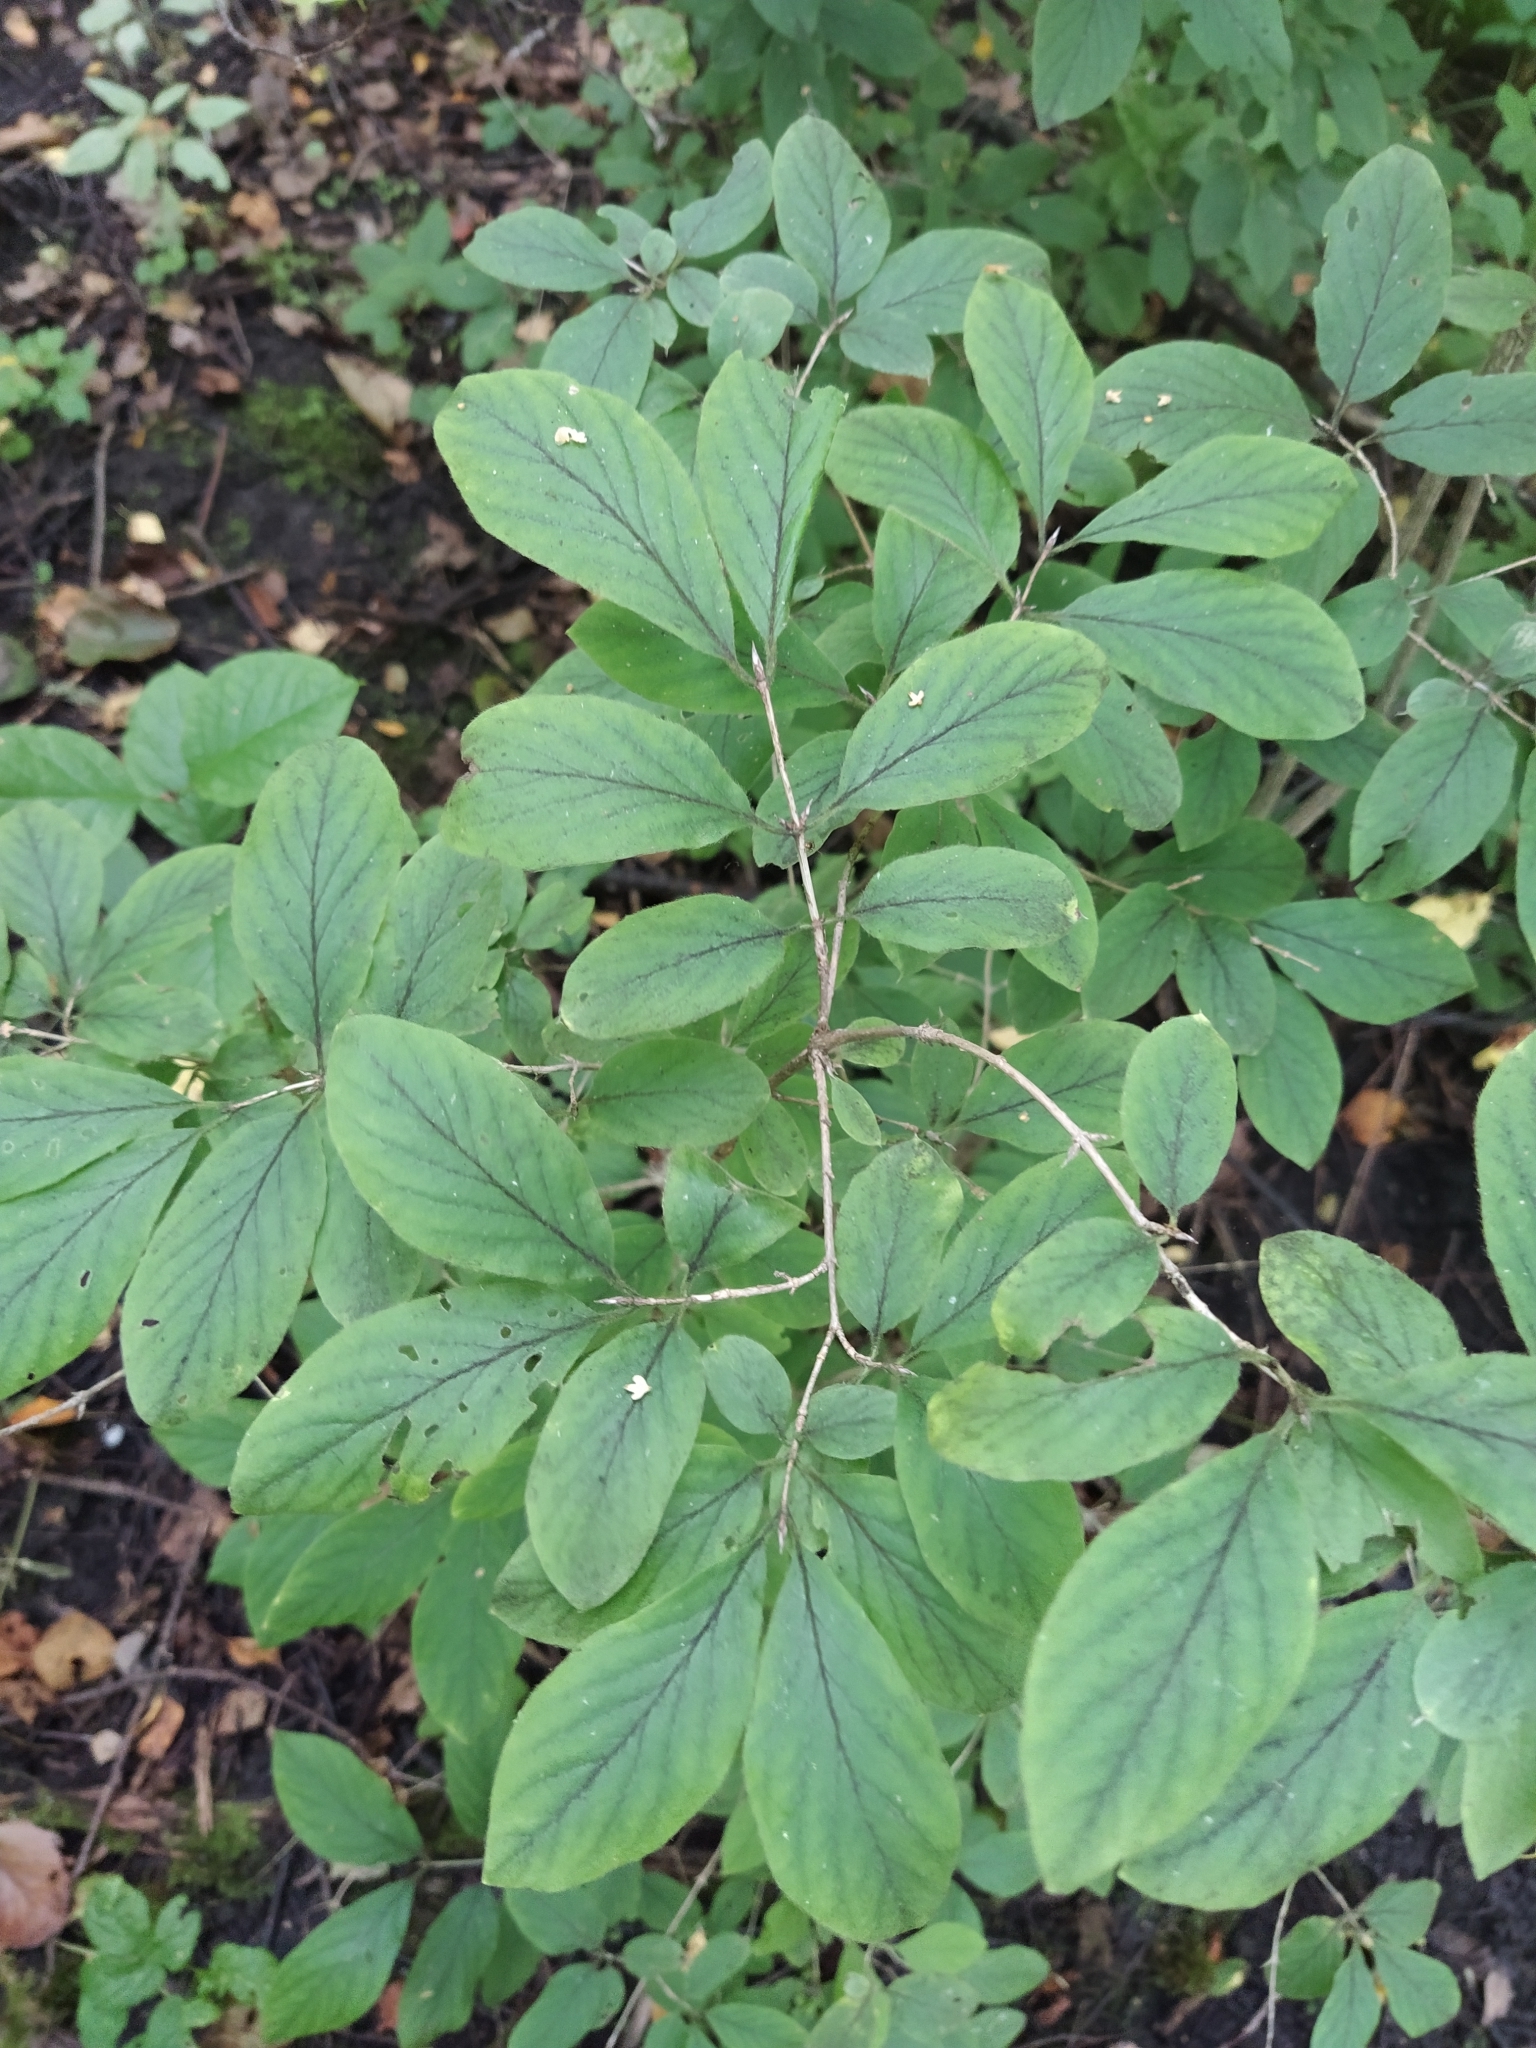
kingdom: Plantae
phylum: Tracheophyta
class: Magnoliopsida
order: Dipsacales
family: Caprifoliaceae
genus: Lonicera
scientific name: Lonicera xylosteum
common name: Fly honeysuckle
